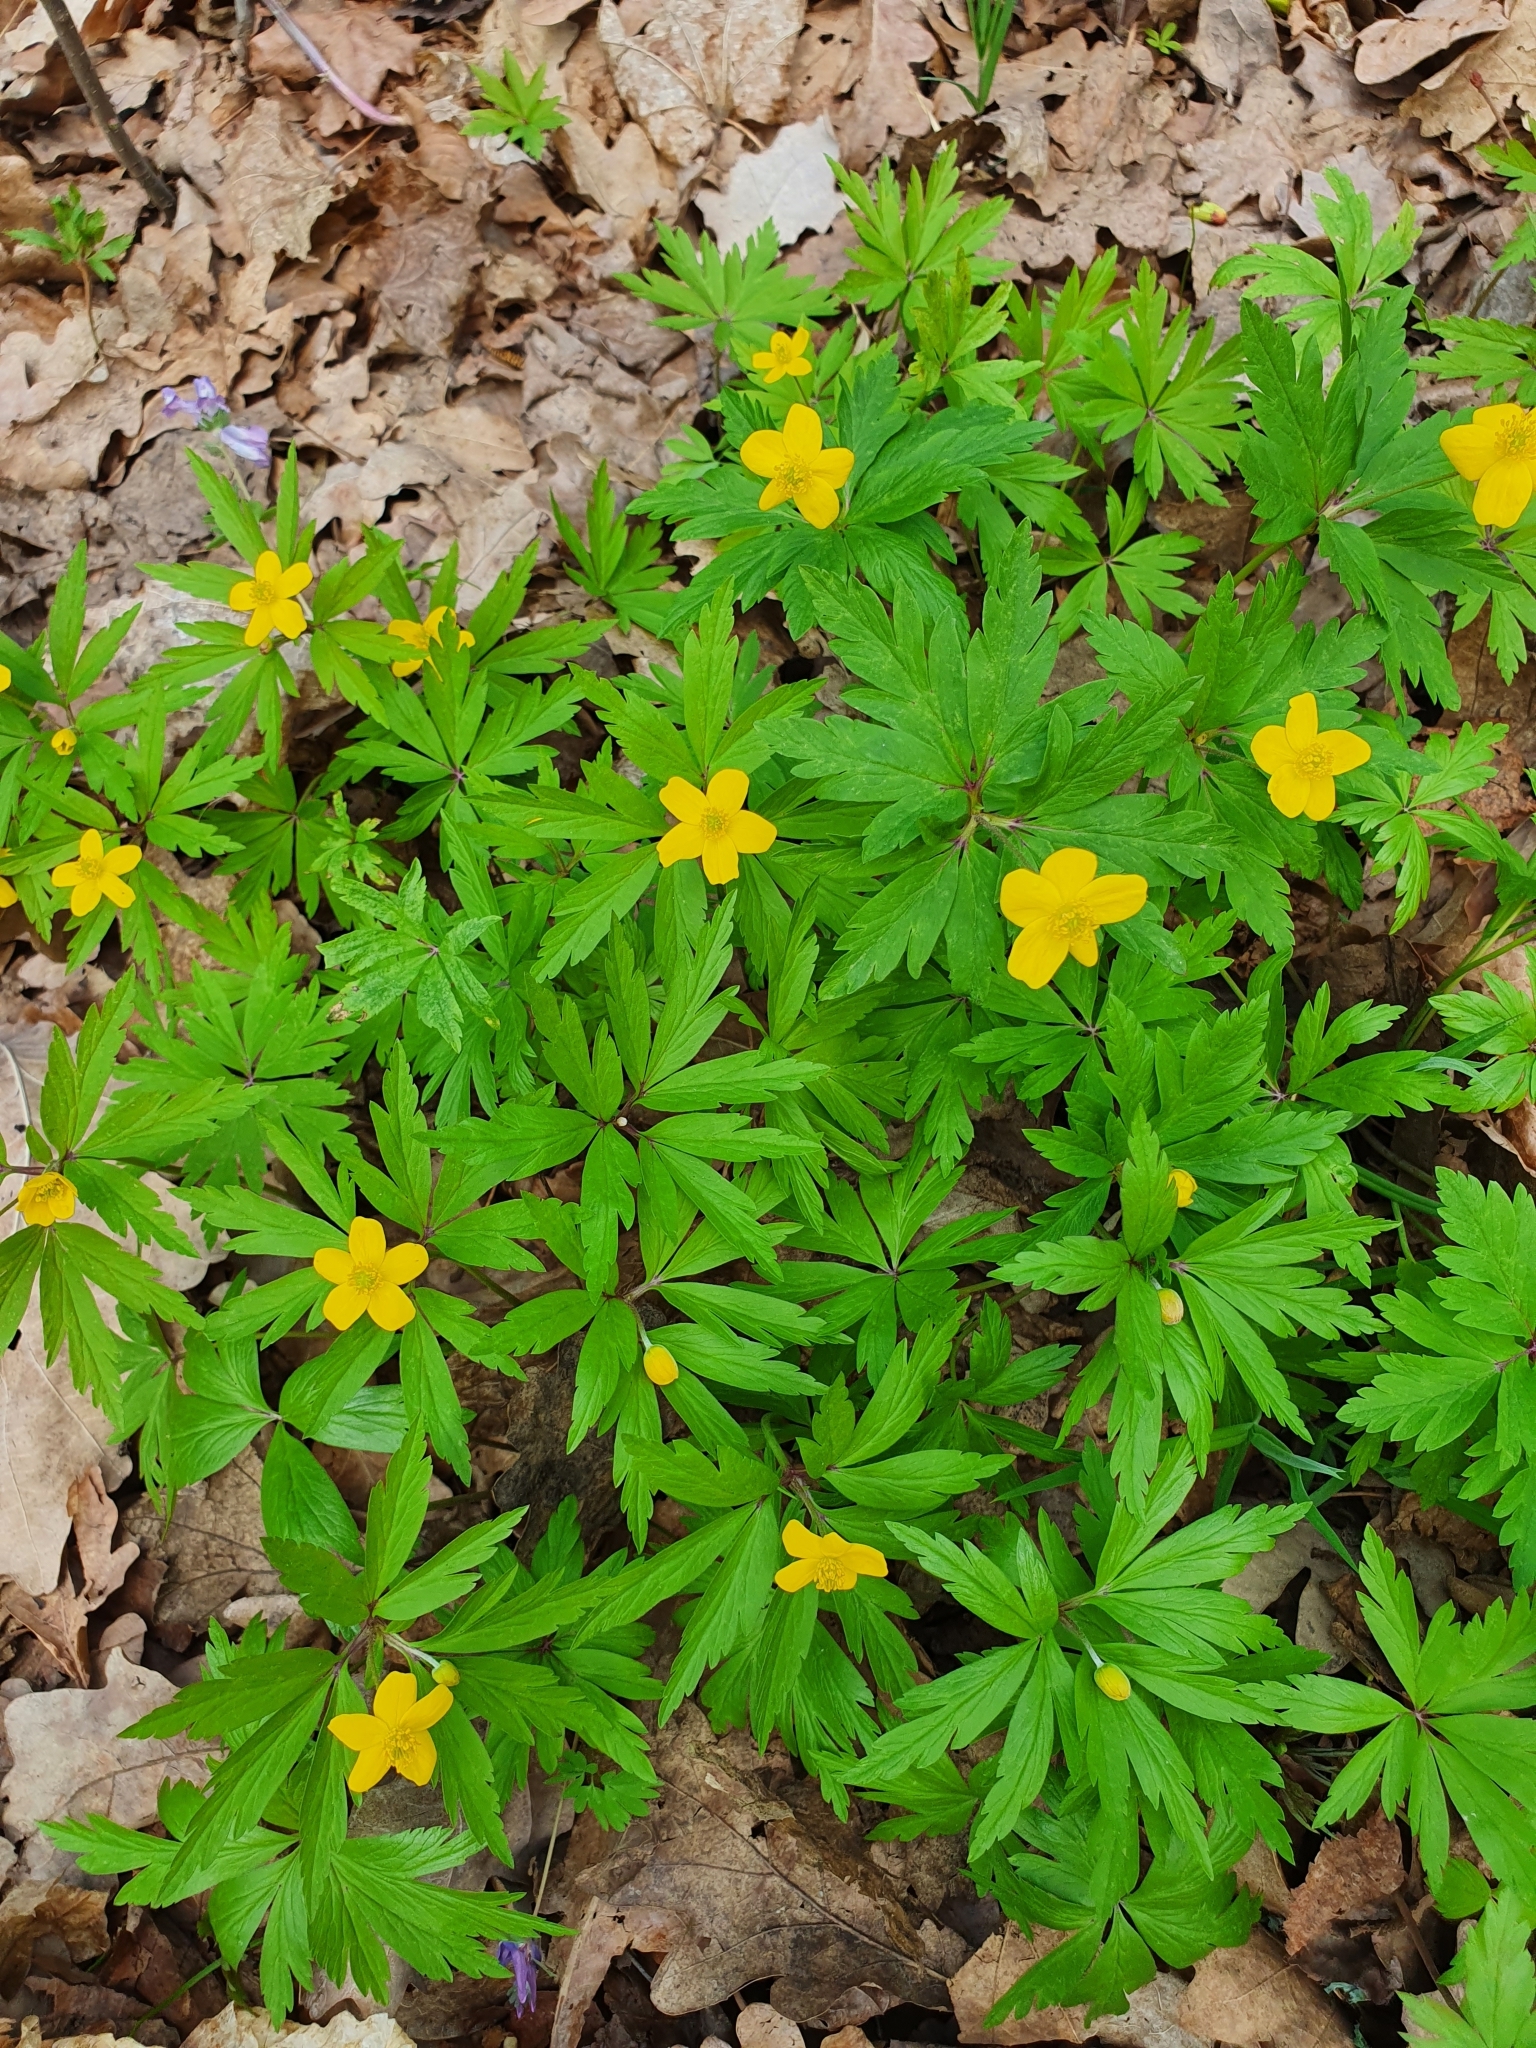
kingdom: Plantae
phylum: Tracheophyta
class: Magnoliopsida
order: Ranunculales
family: Ranunculaceae
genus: Anemone
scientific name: Anemone ranunculoides
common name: Yellow anemone
